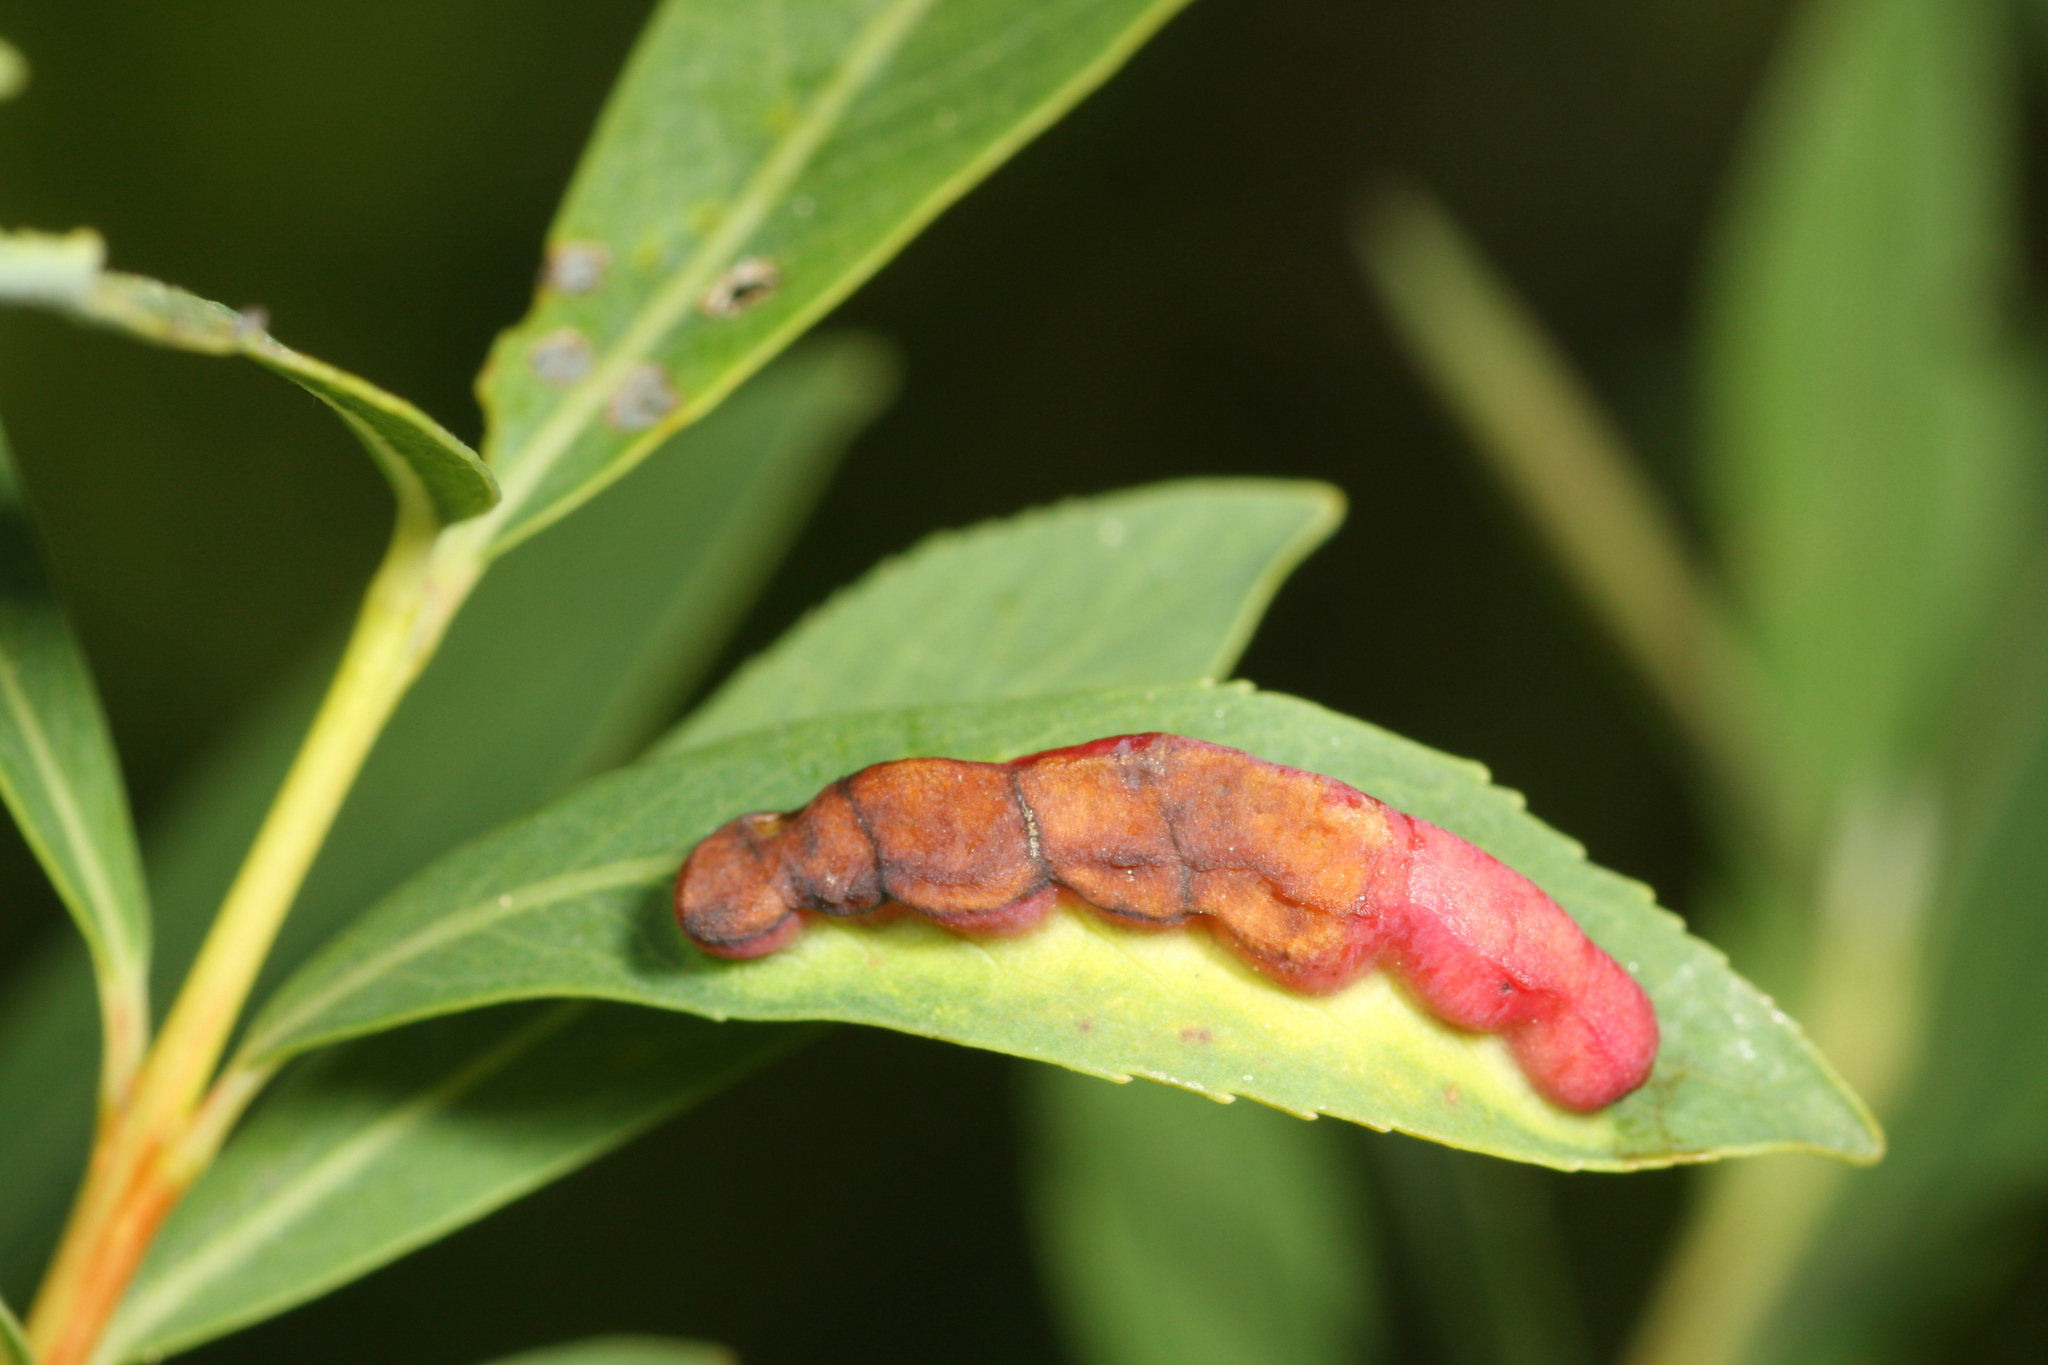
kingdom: Animalia
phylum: Arthropoda
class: Insecta
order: Hymenoptera
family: Tenthredinidae
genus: Pontania
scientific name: Pontania virilis
